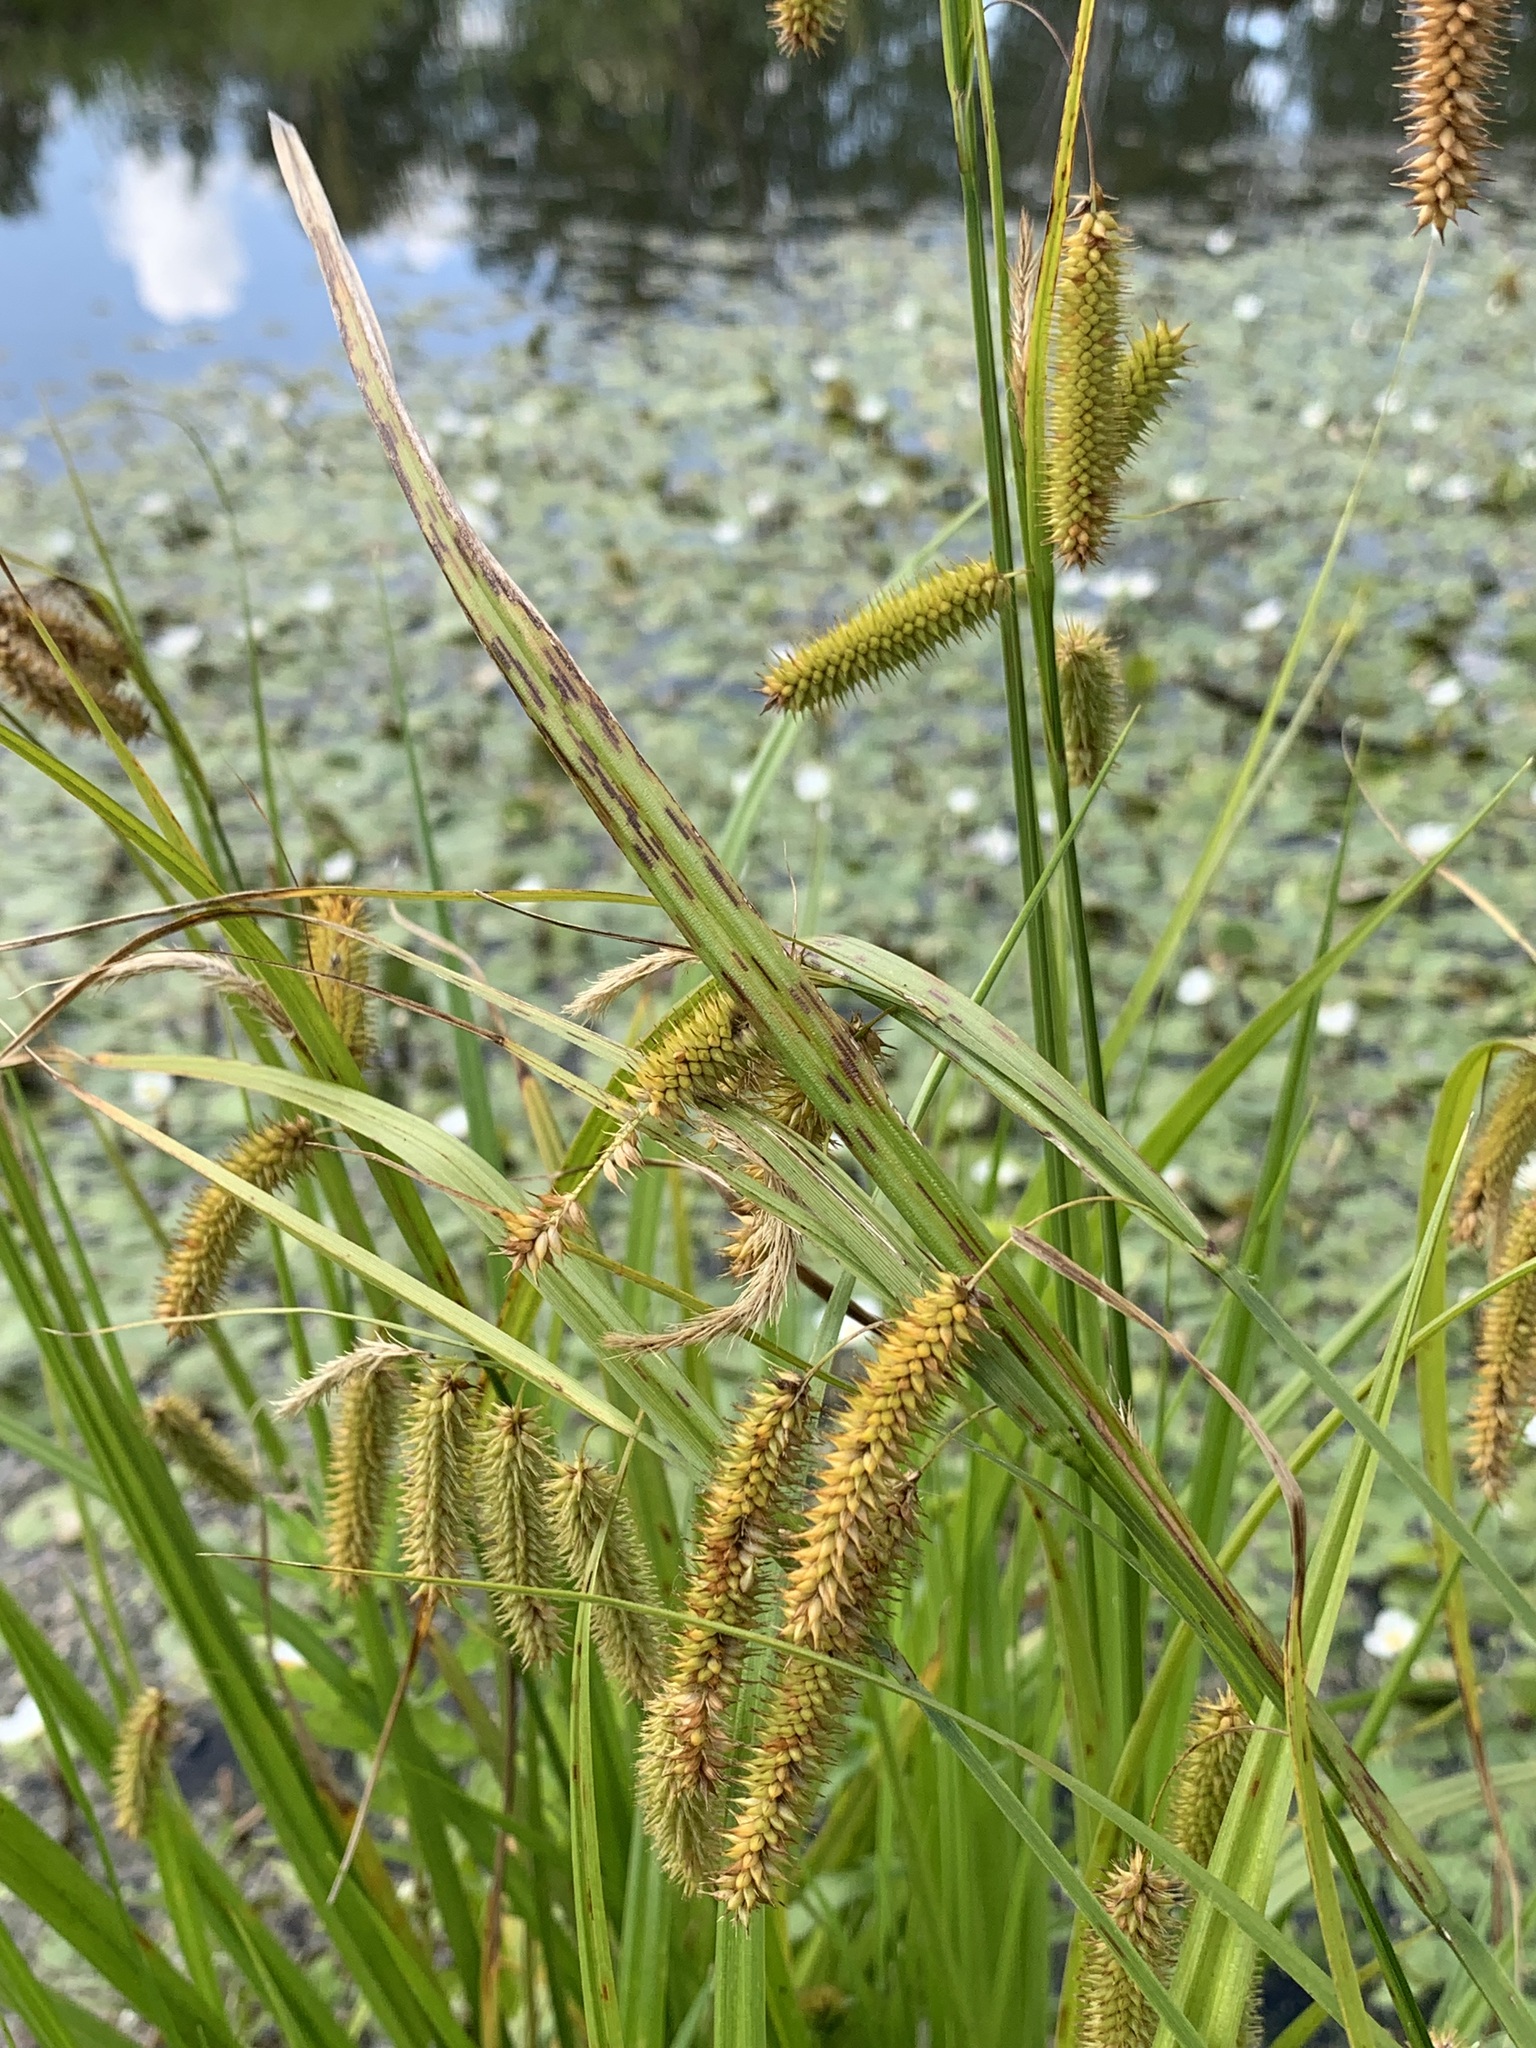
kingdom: Plantae
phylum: Tracheophyta
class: Liliopsida
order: Poales
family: Cyperaceae
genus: Carex
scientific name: Carex pseudocyperus
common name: Cyperus sedge
